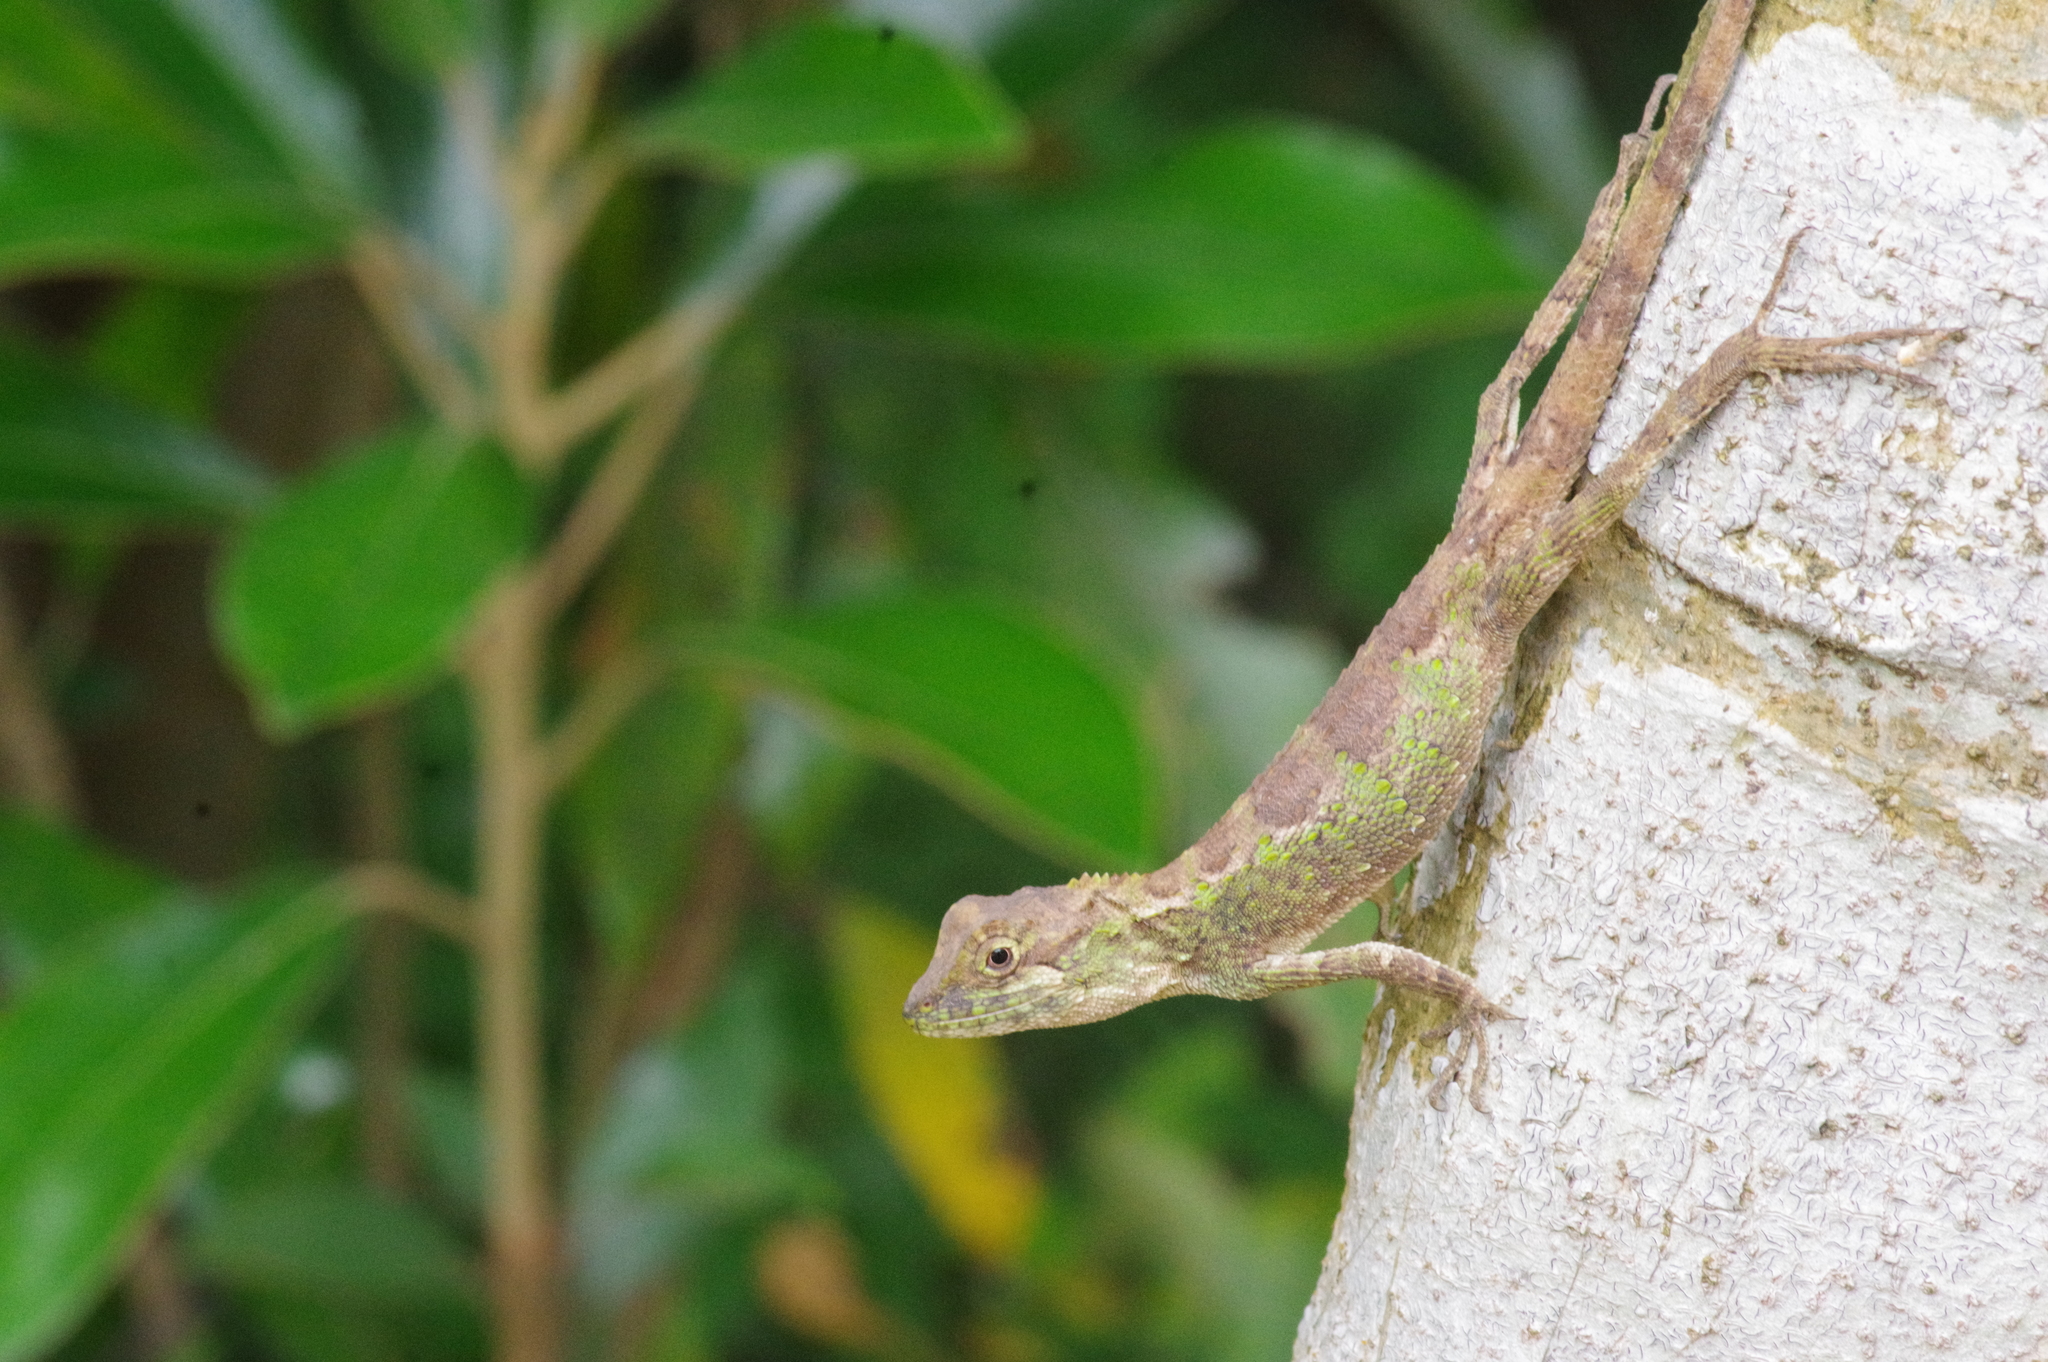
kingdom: Fungi
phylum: Basidiomycota
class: Agaricomycetes
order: Boletales
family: Diplocystidiaceae
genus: Diploderma
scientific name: Diploderma polygonatum
